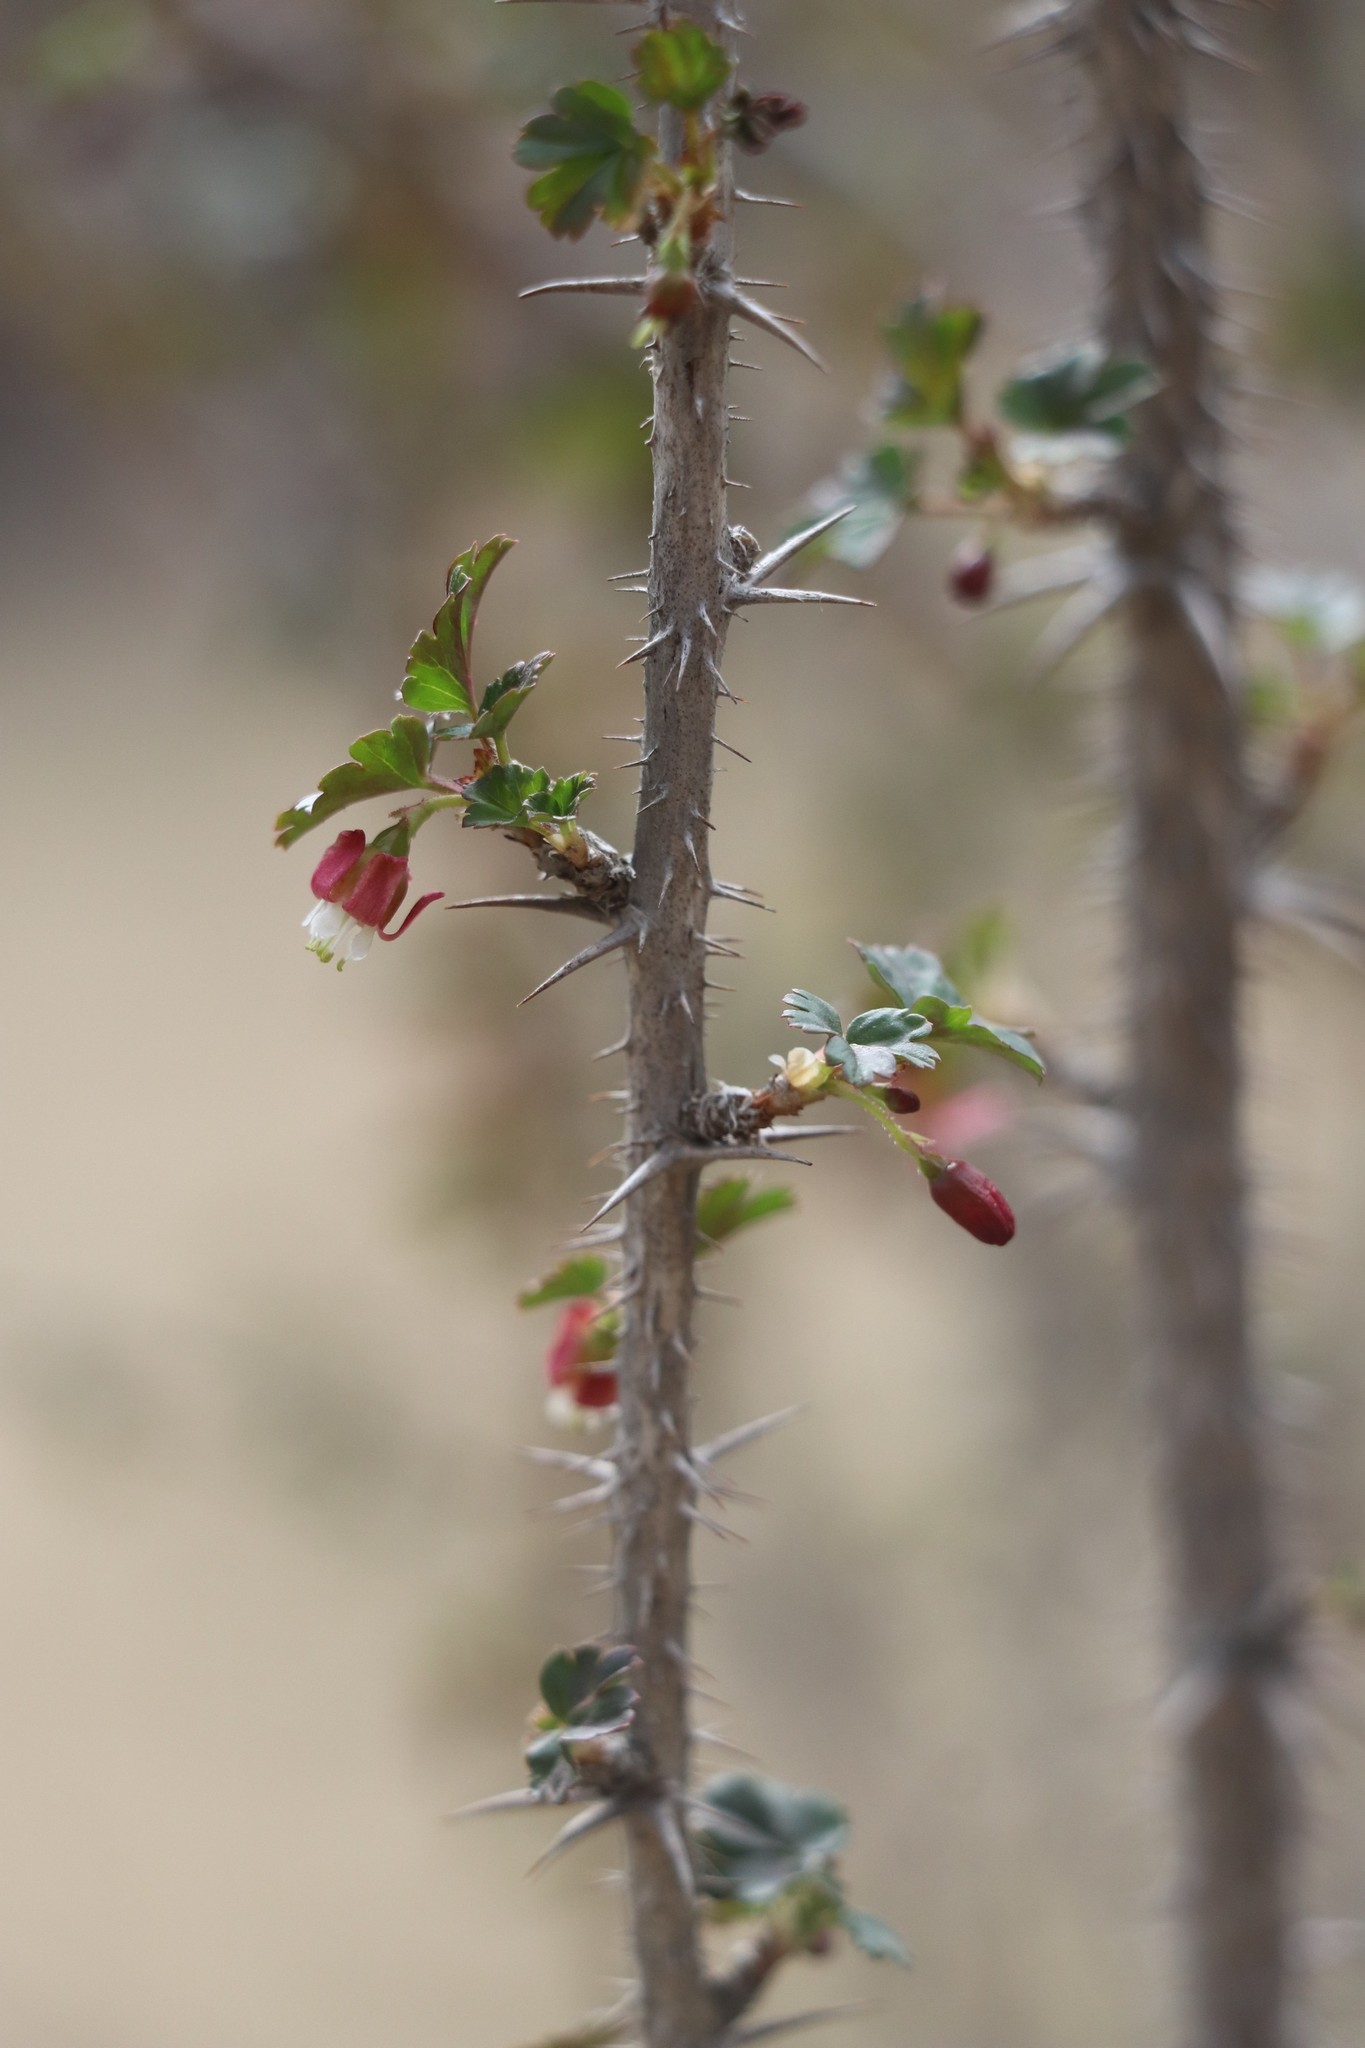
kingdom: Plantae
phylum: Tracheophyta
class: Magnoliopsida
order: Saxifragales
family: Grossulariaceae
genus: Ribes
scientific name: Ribes aciculare
